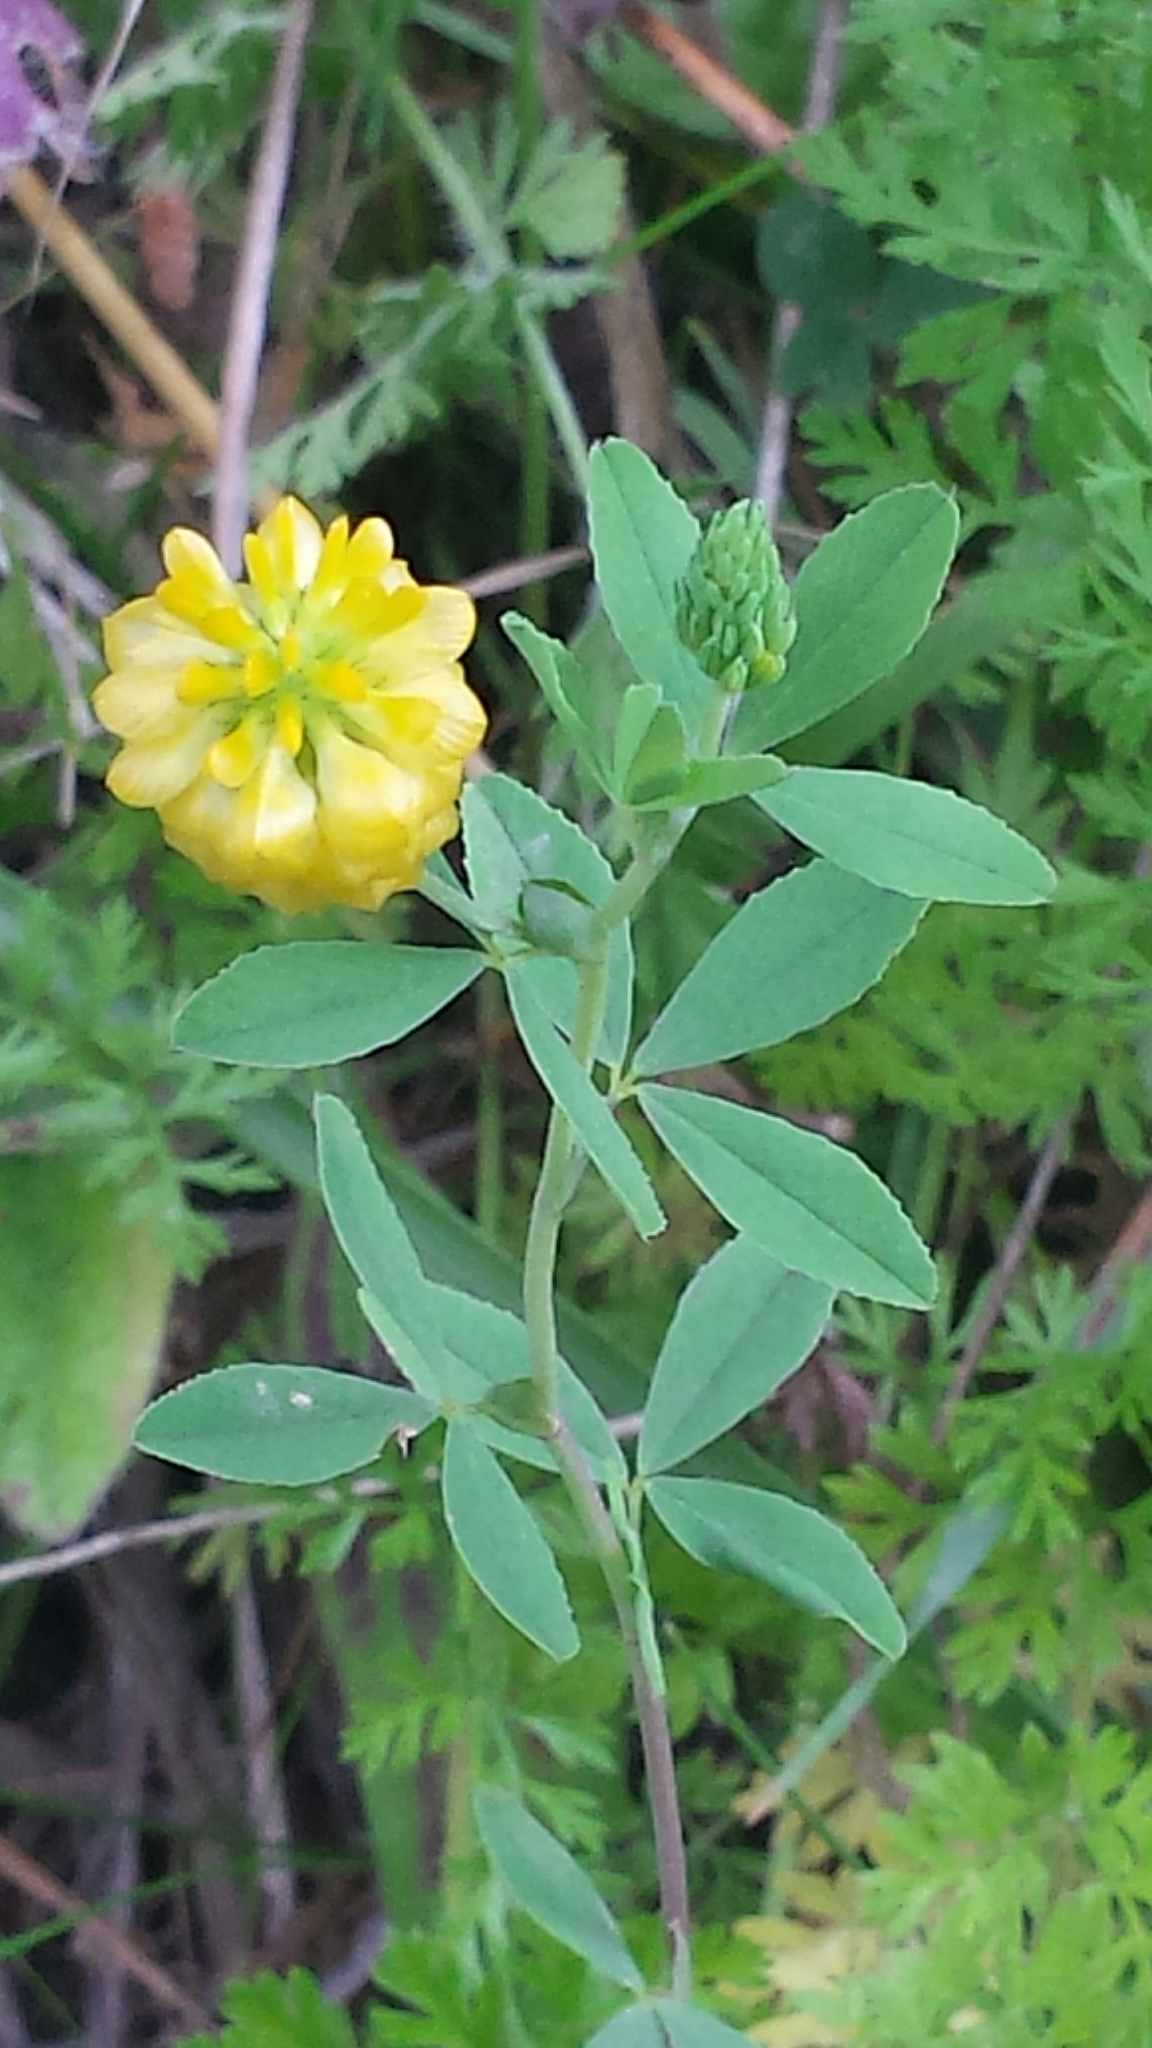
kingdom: Plantae
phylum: Tracheophyta
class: Magnoliopsida
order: Fabales
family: Fabaceae
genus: Trifolium
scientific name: Trifolium aureum
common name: Golden clover
